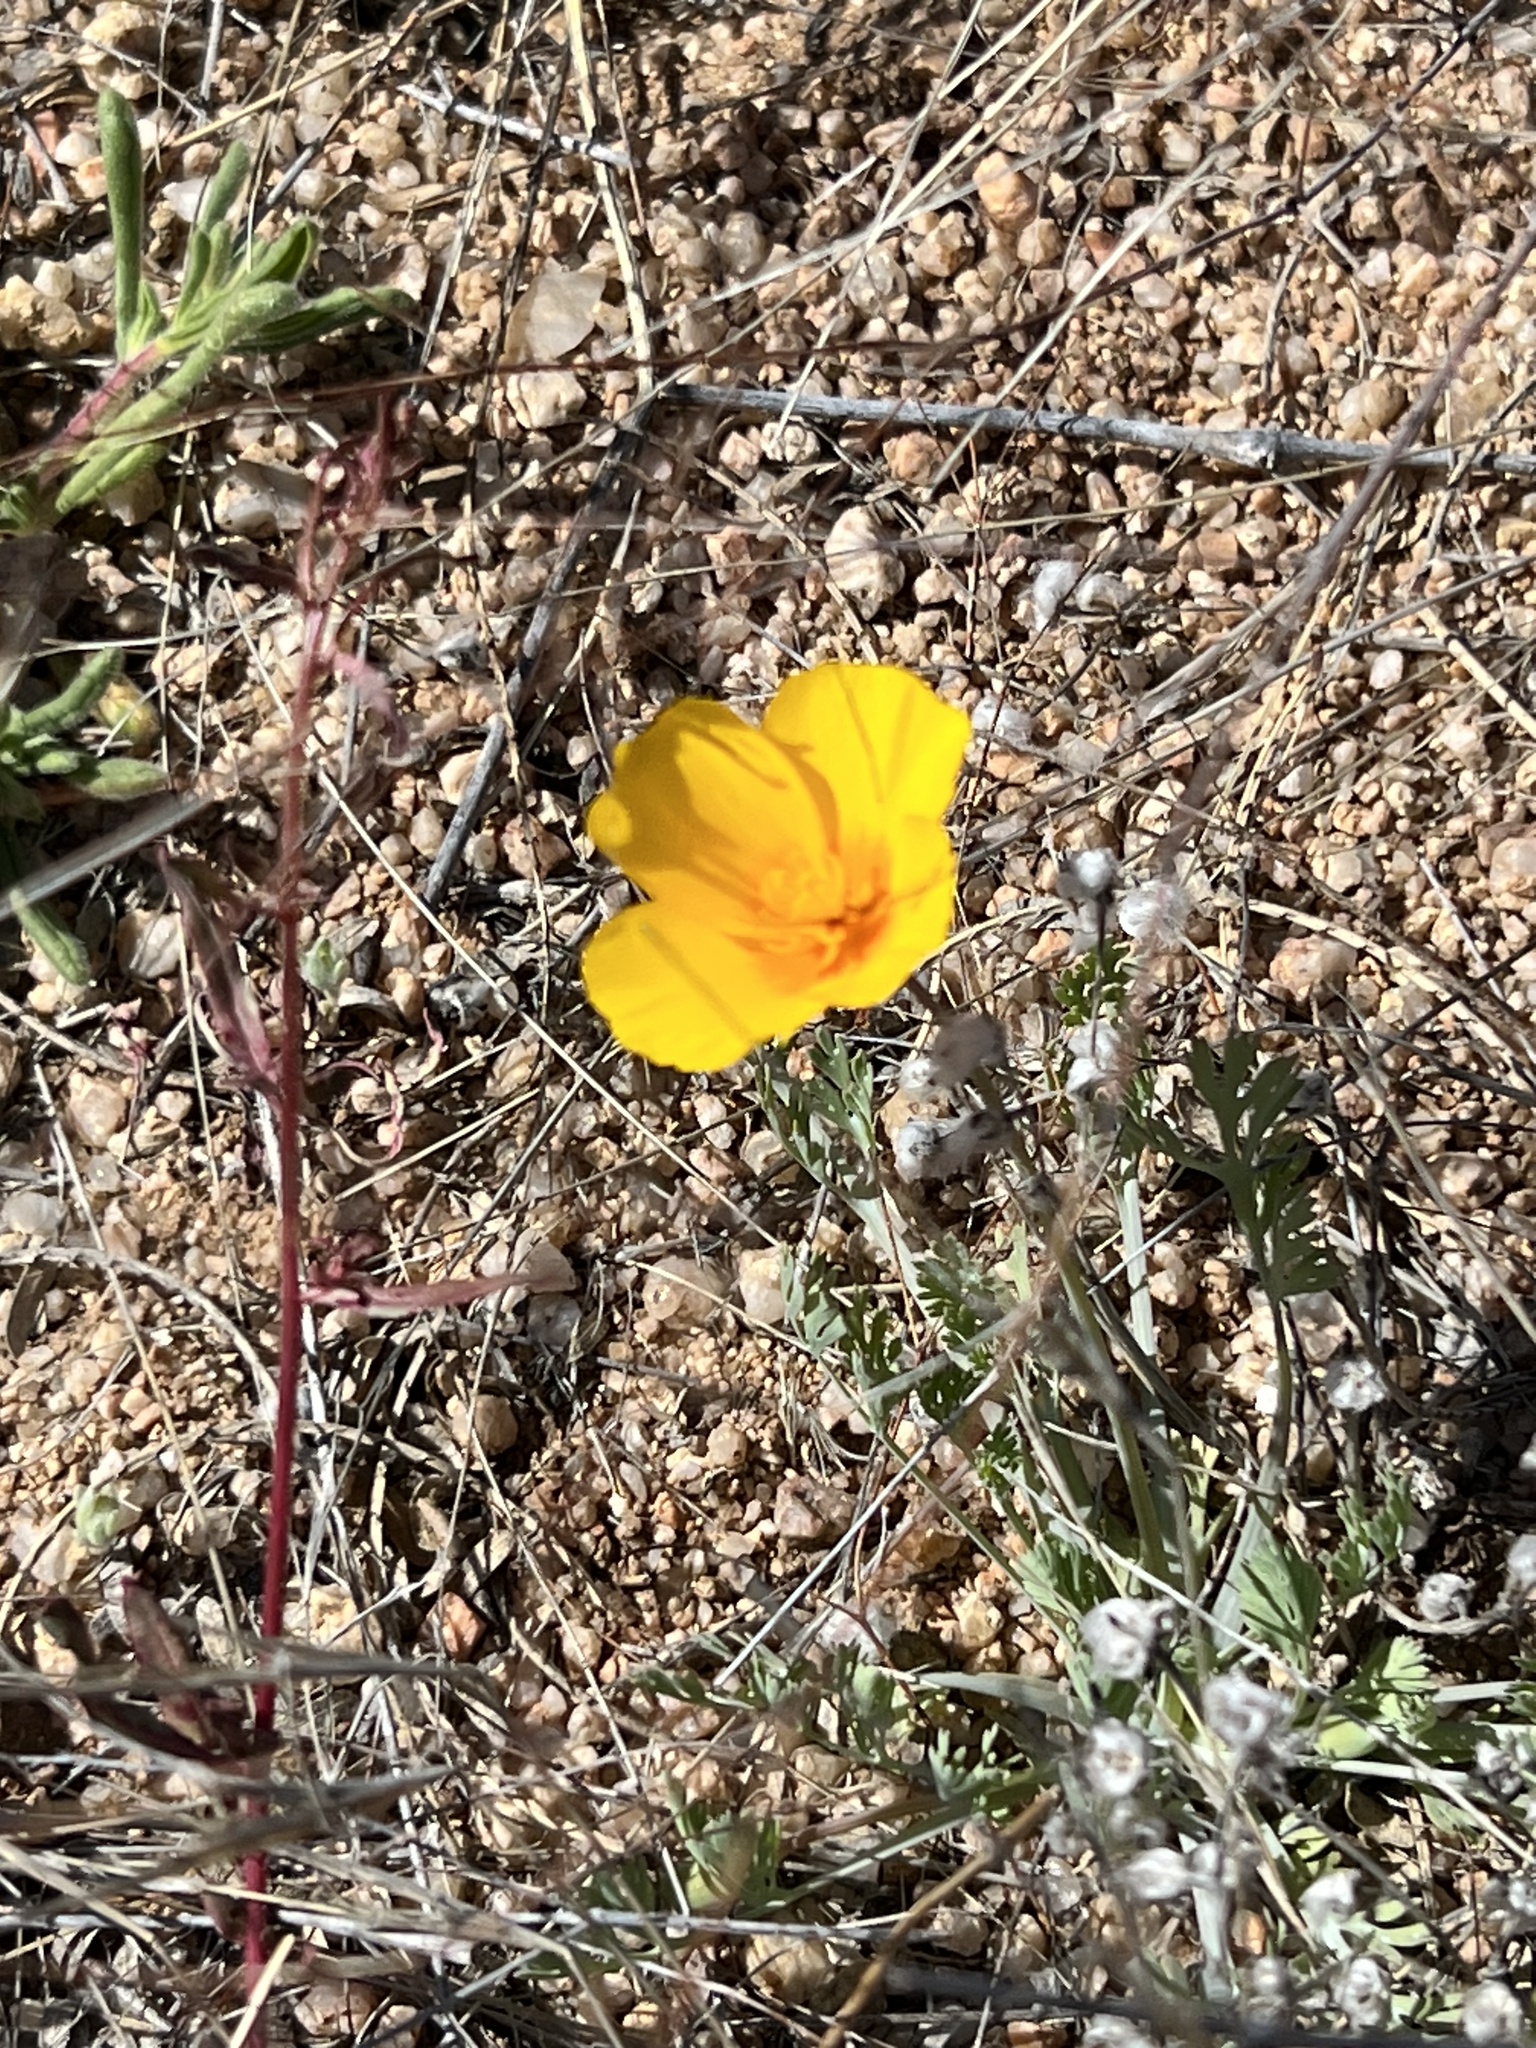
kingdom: Plantae
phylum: Tracheophyta
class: Magnoliopsida
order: Ranunculales
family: Papaveraceae
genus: Eschscholzia
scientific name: Eschscholzia californica
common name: California poppy
